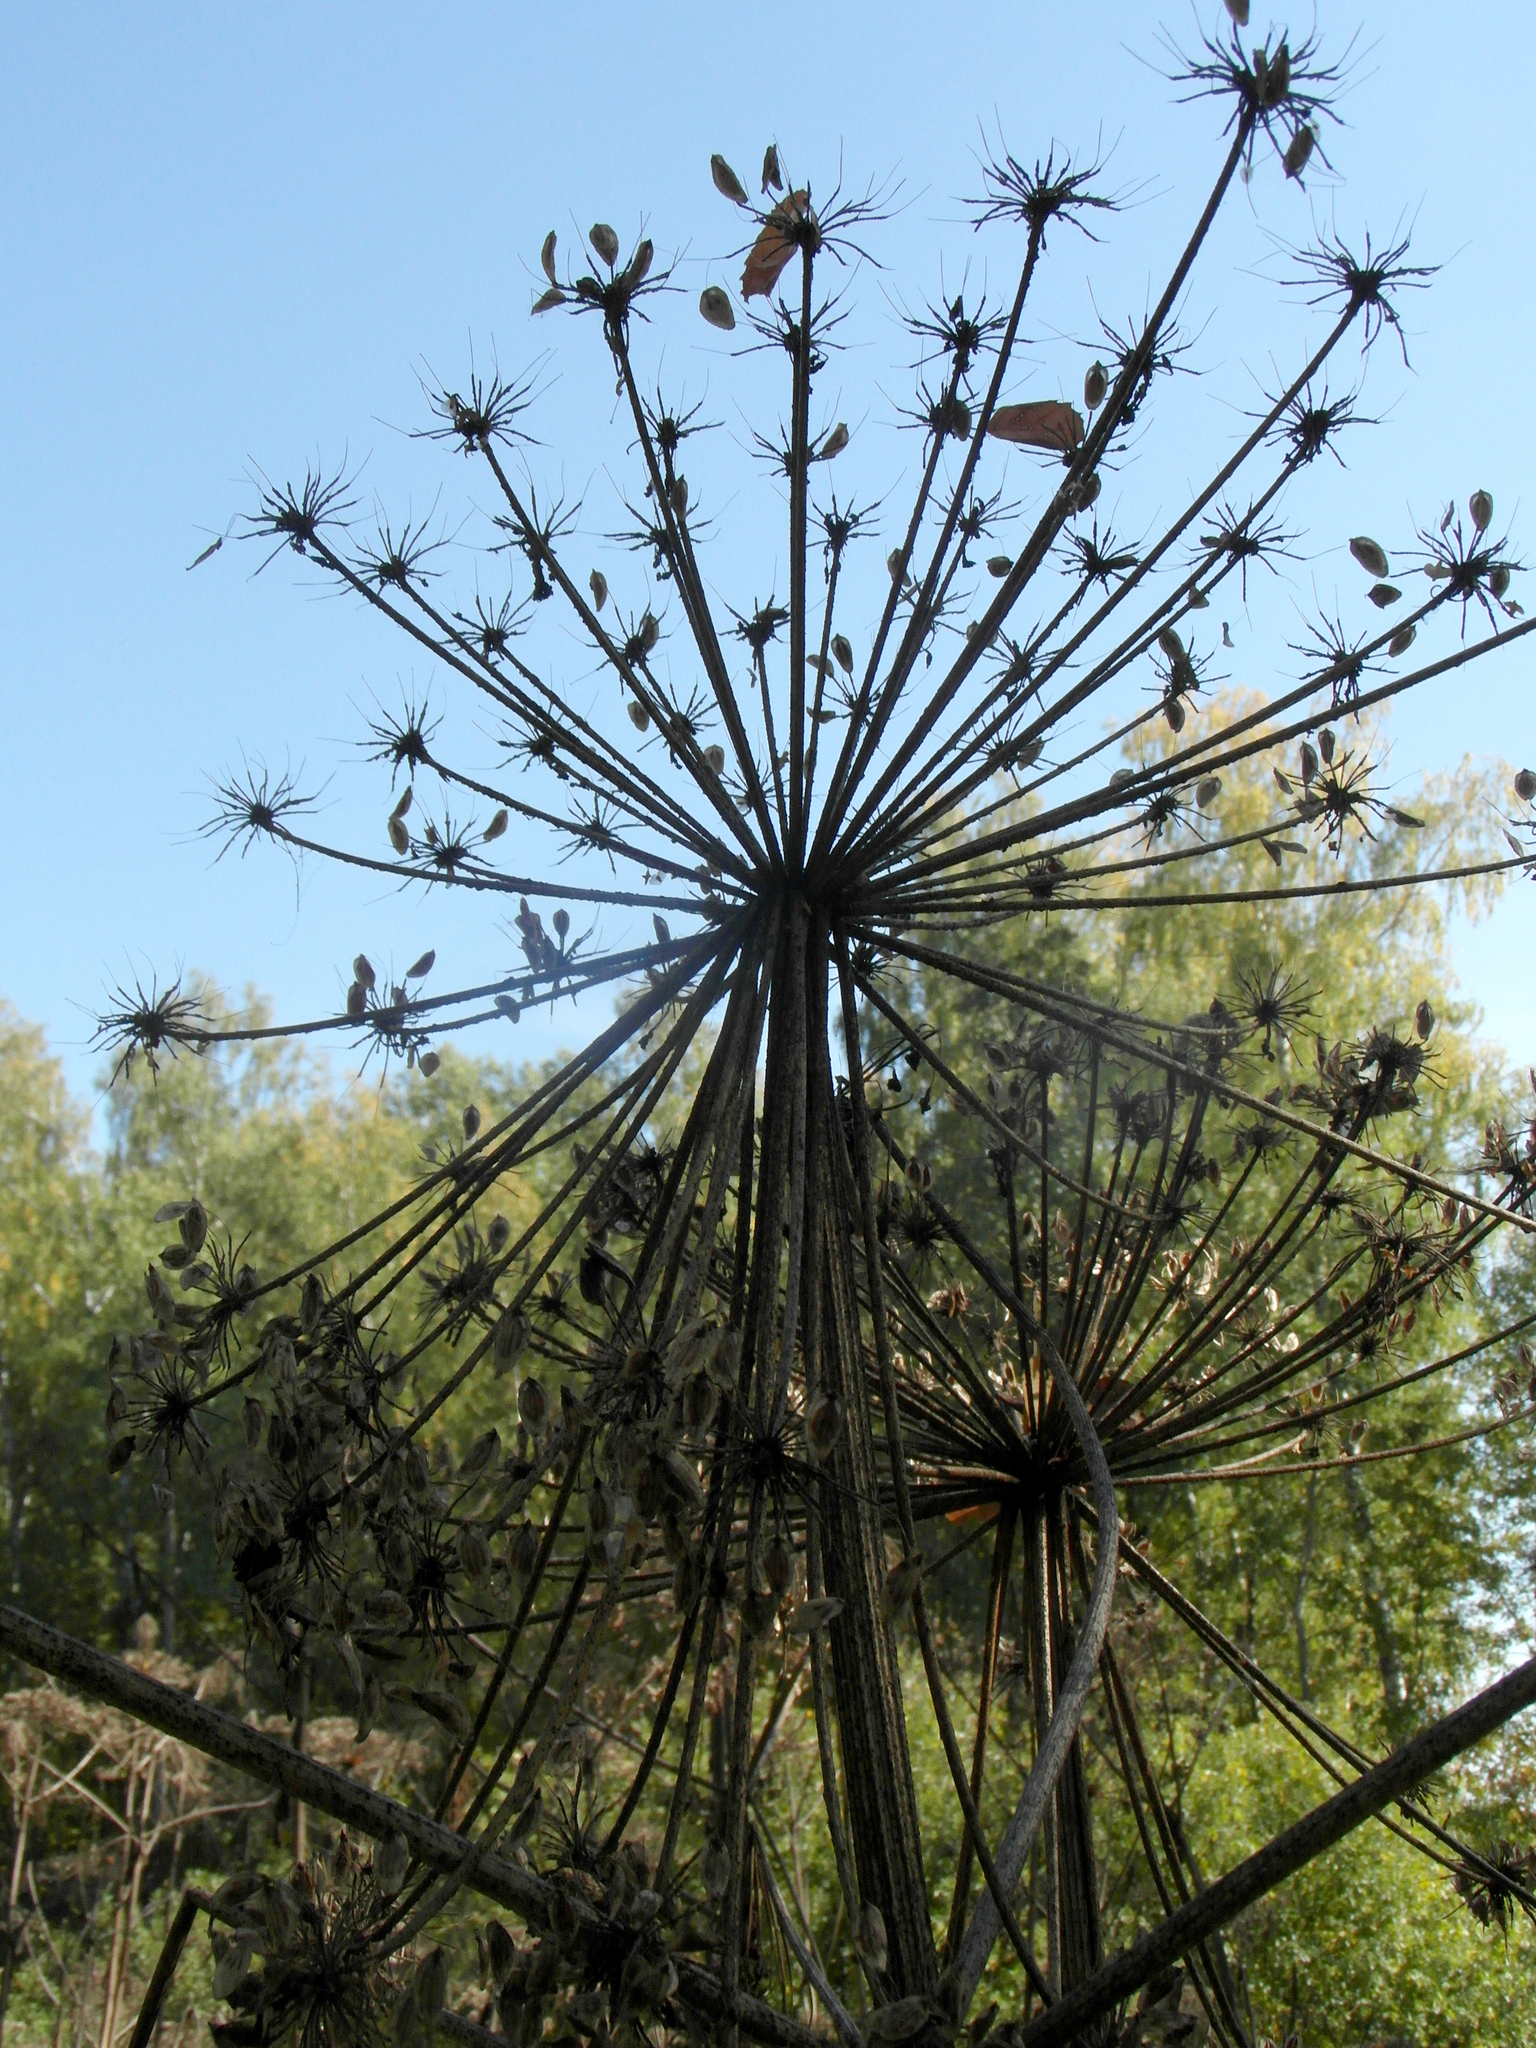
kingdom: Plantae
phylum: Tracheophyta
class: Magnoliopsida
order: Apiales
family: Apiaceae
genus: Heracleum
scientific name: Heracleum sosnowskyi
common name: Sosnowsky's hogweed
